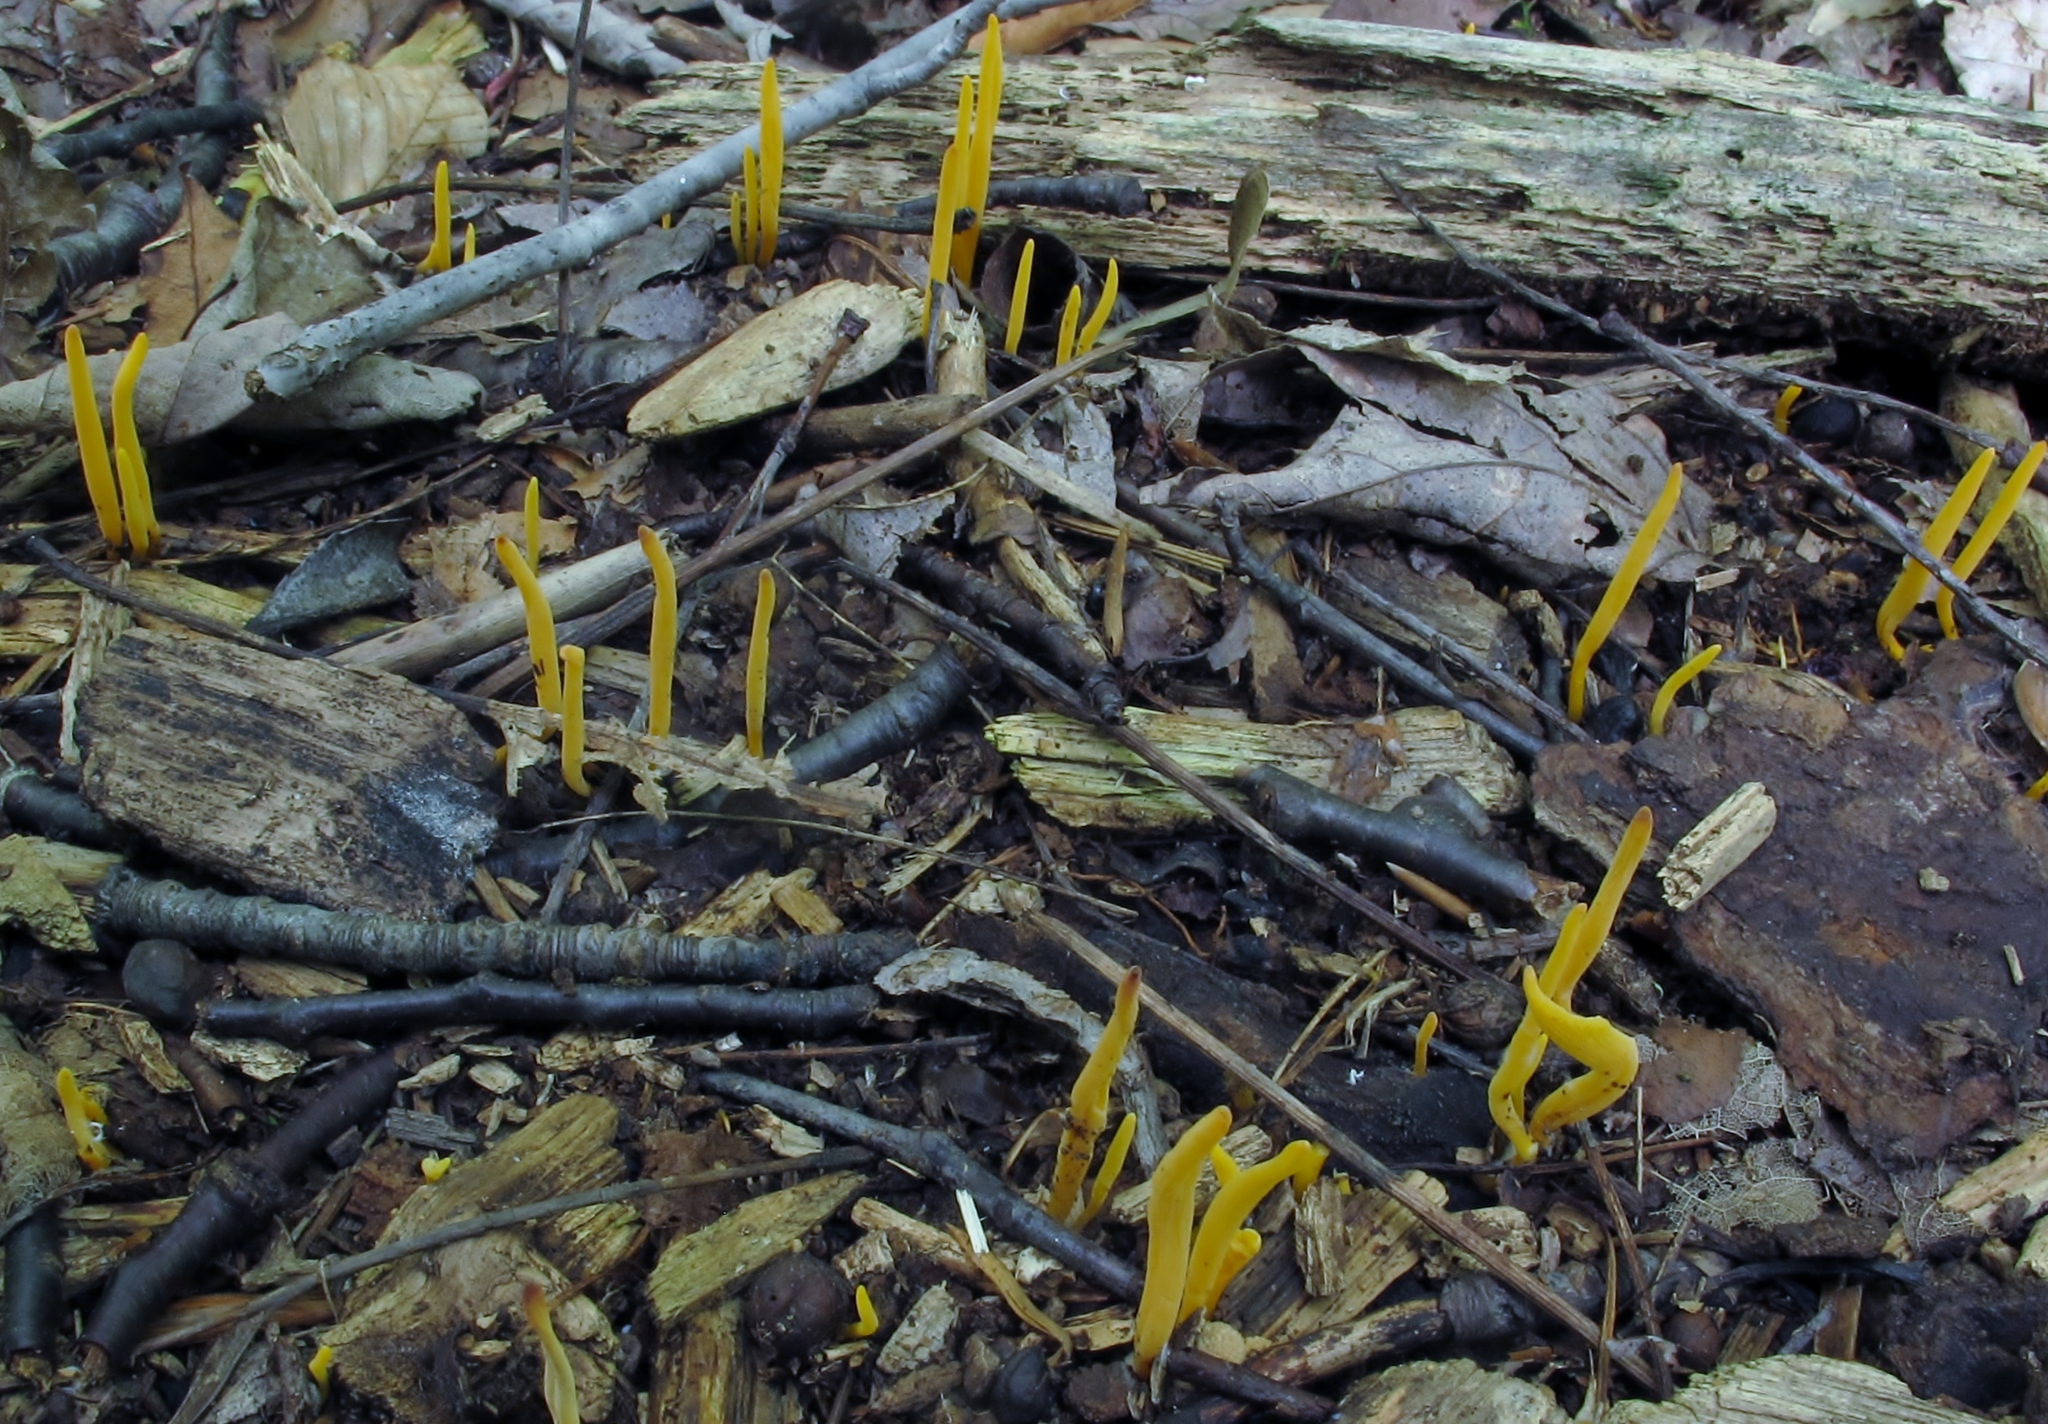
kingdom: Fungi
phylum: Basidiomycota
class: Agaricomycetes
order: Agaricales
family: Clavariaceae
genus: Clavulinopsis
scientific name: Clavulinopsis laeticolor
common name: Handsome club
